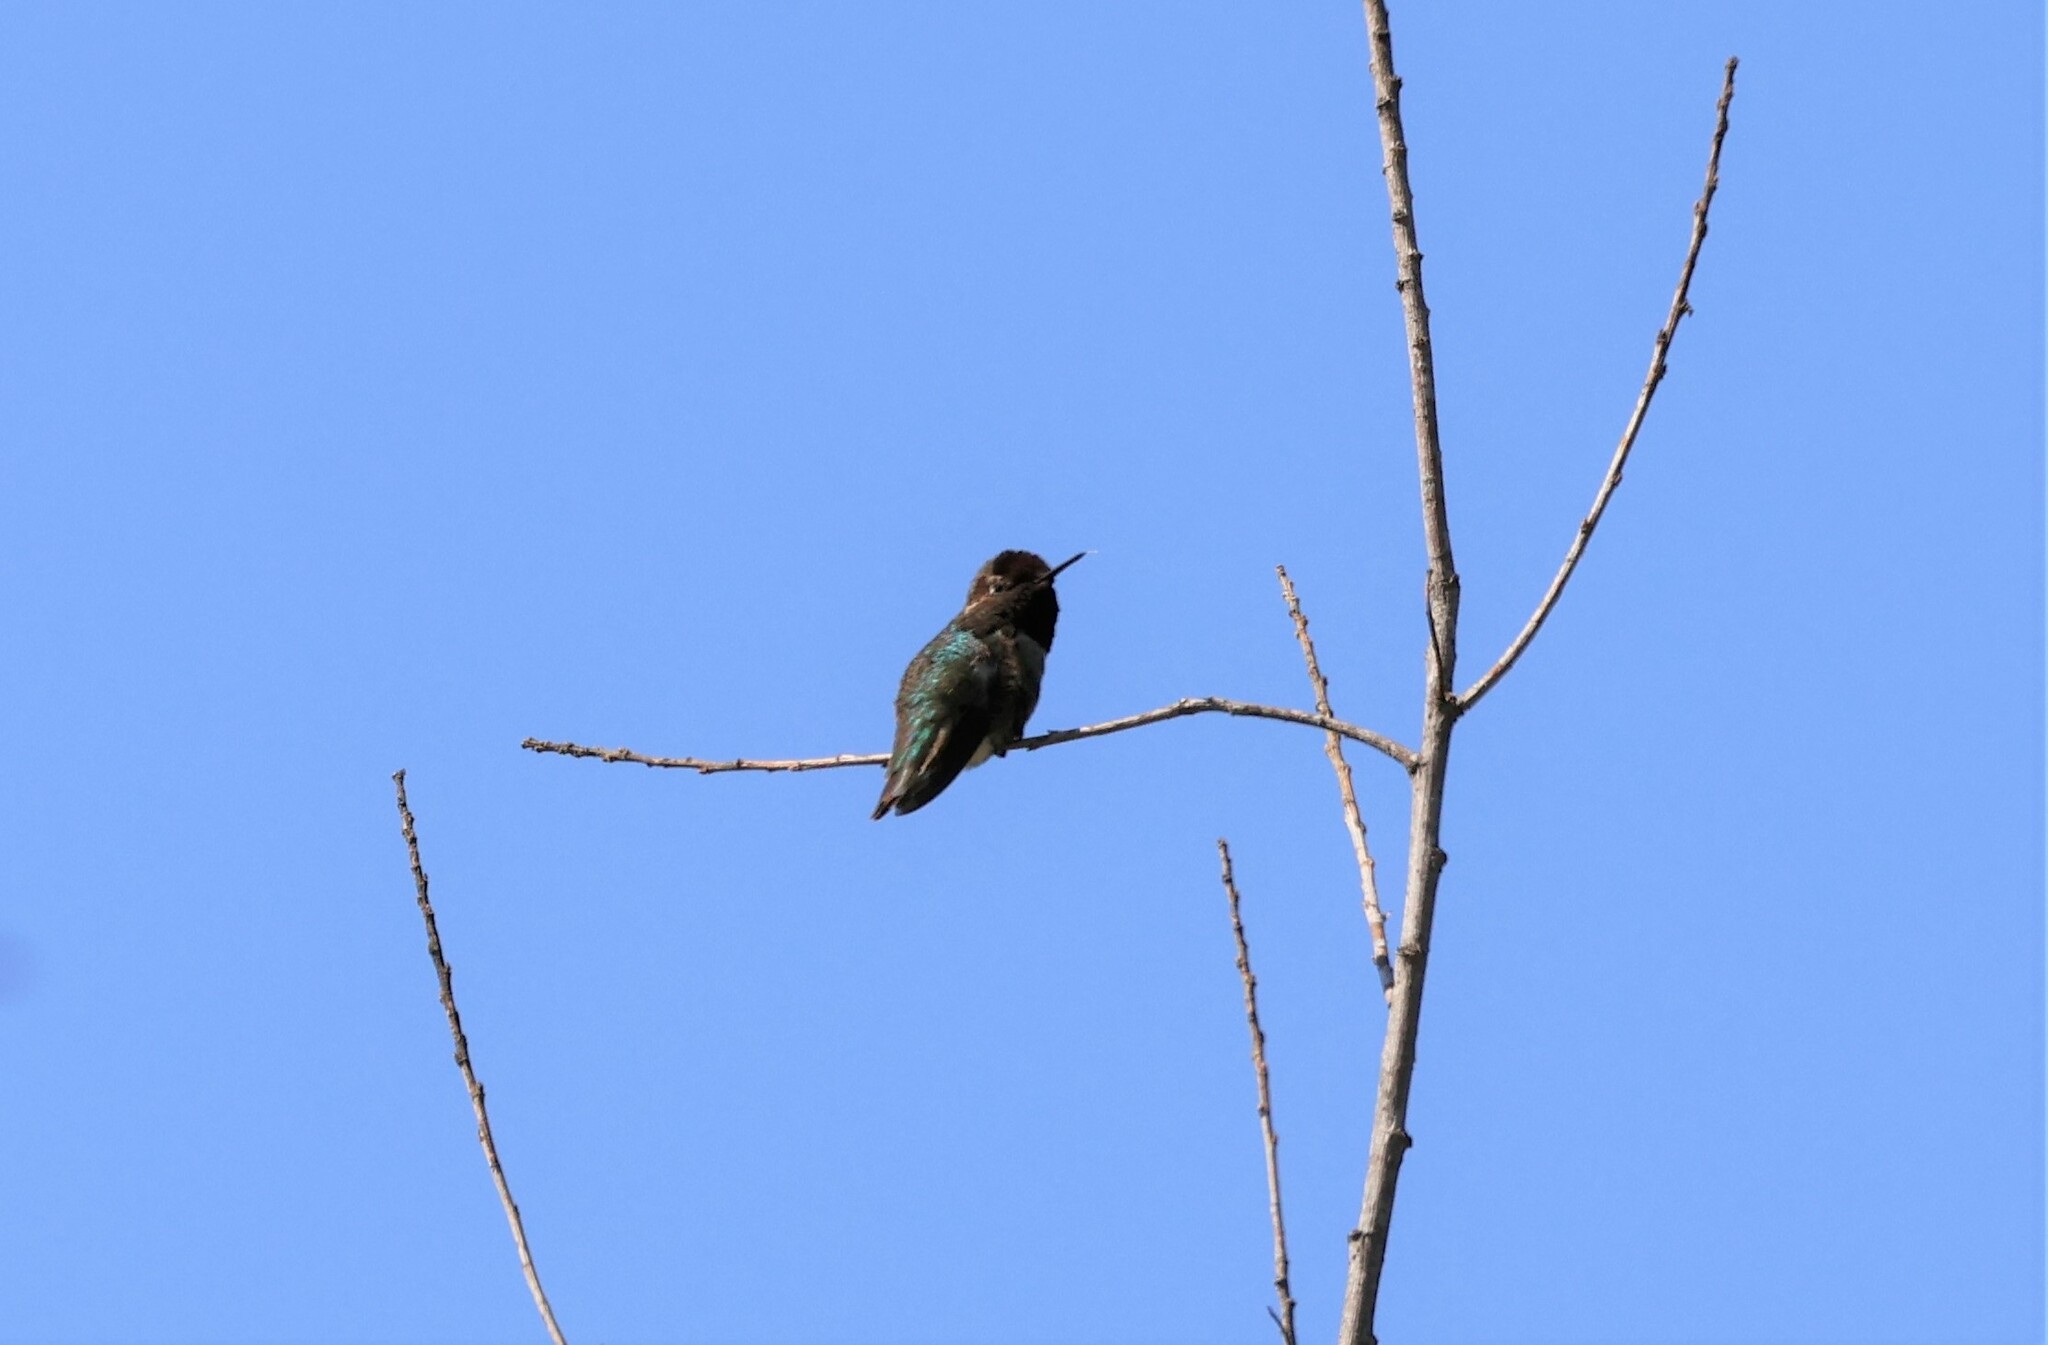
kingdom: Animalia
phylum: Chordata
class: Aves
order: Apodiformes
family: Trochilidae
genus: Calypte
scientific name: Calypte anna
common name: Anna's hummingbird
